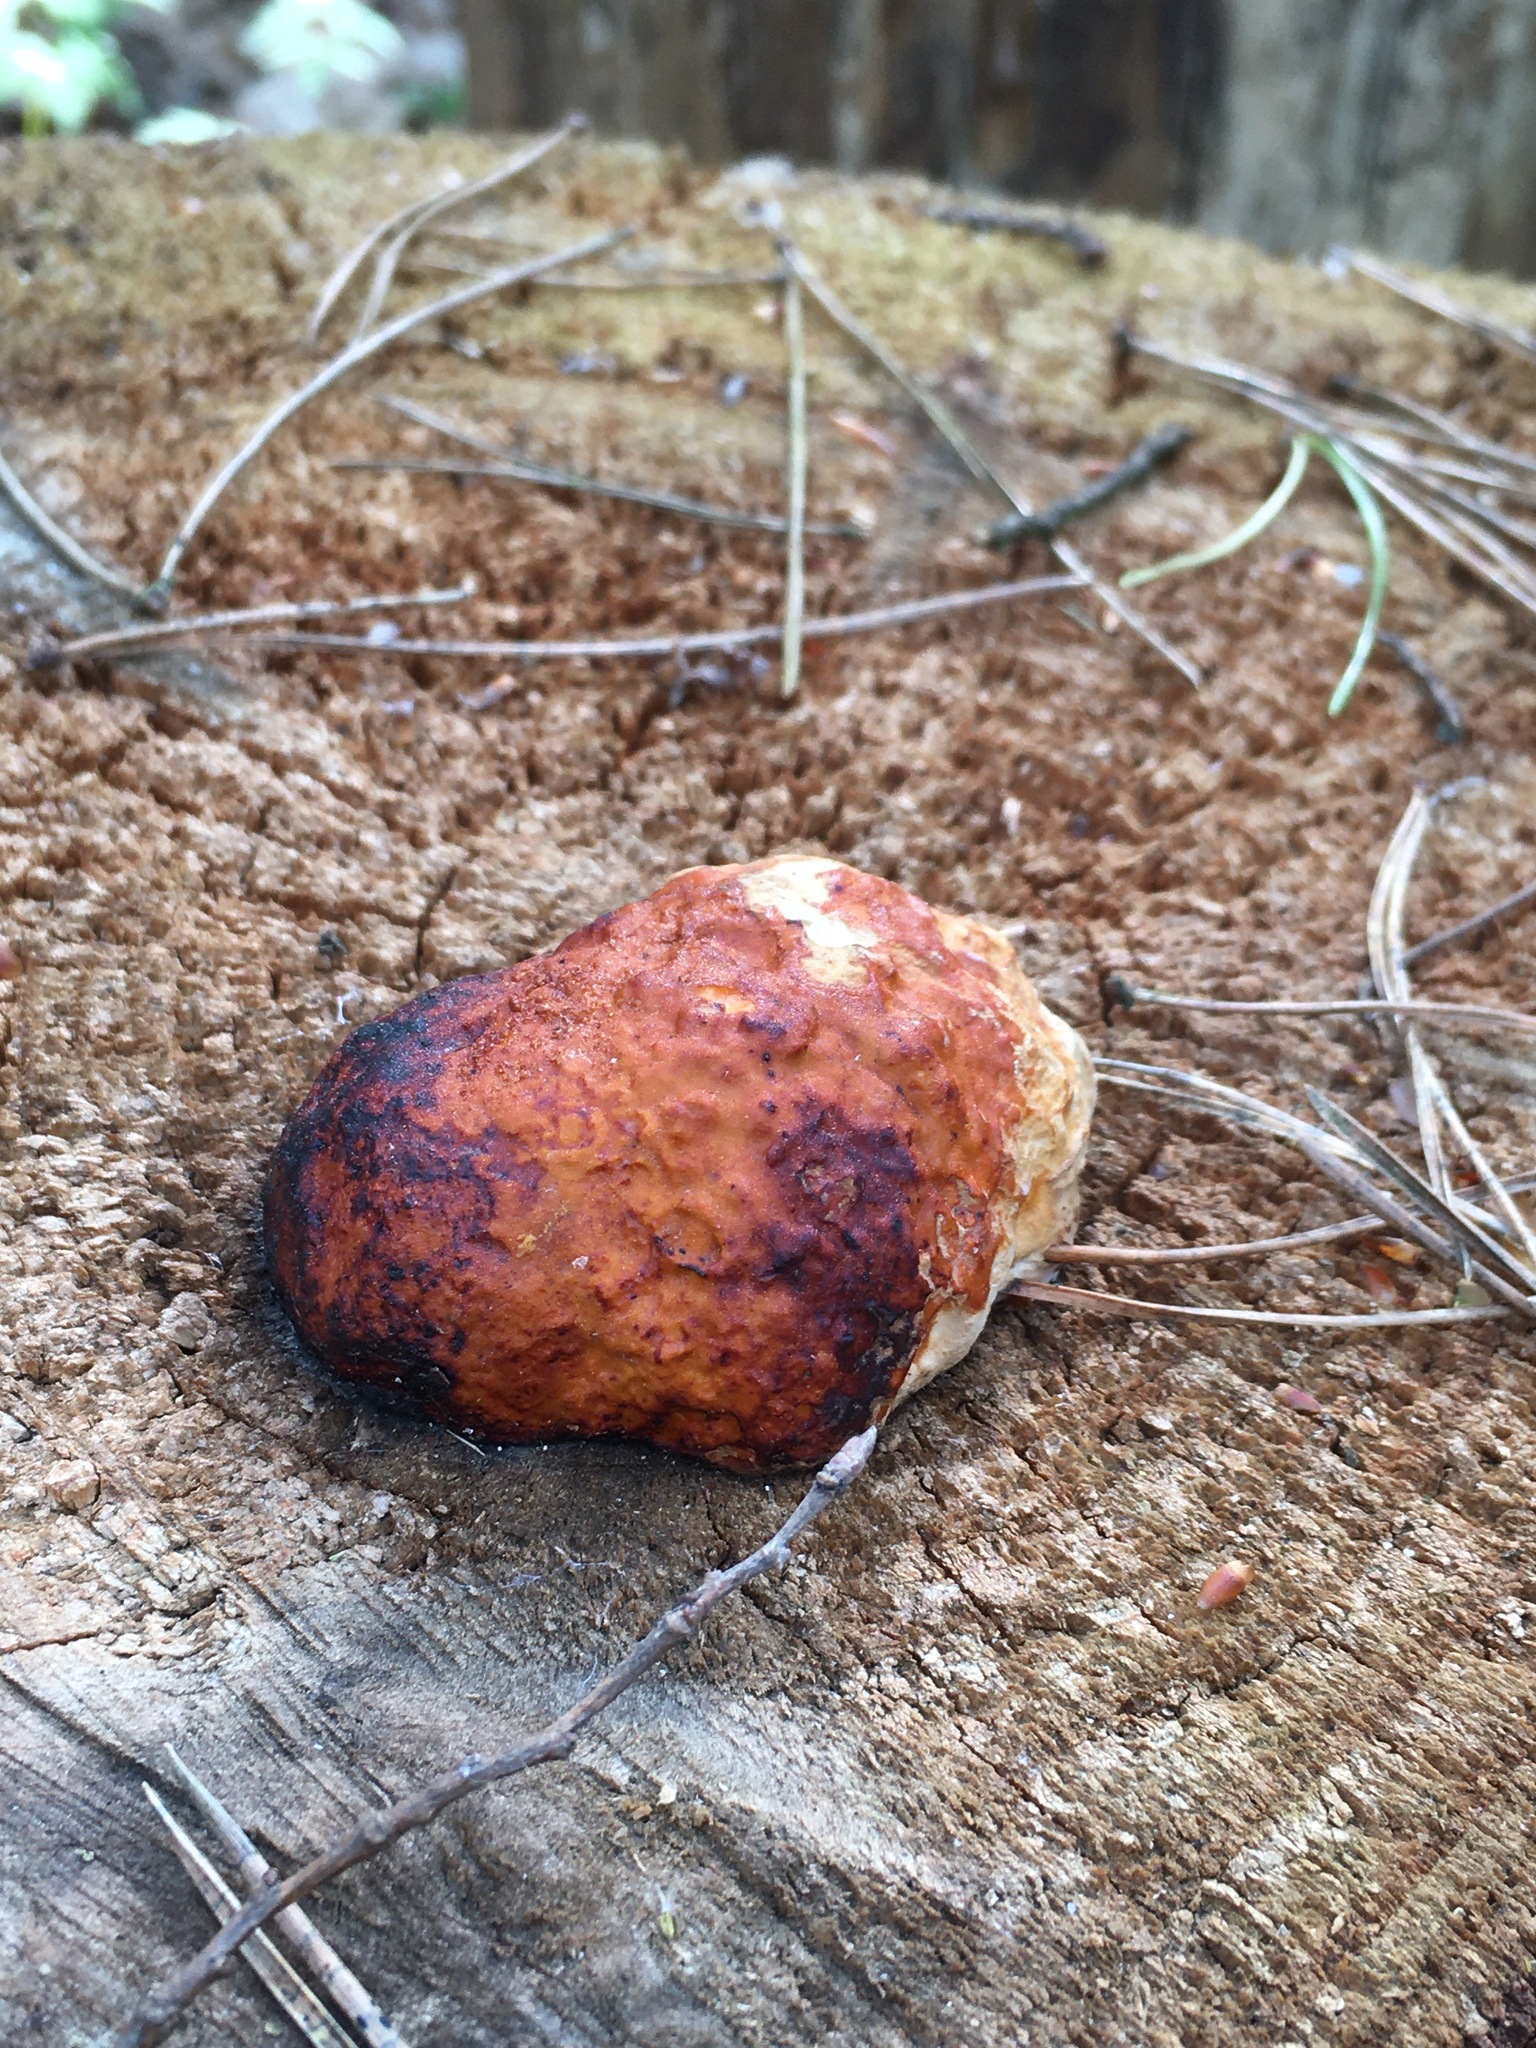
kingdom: Fungi
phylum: Basidiomycota
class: Agaricomycetes
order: Polyporales
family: Fomitopsidaceae
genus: Fomitopsis
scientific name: Fomitopsis pinicola
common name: Red-belted bracket
